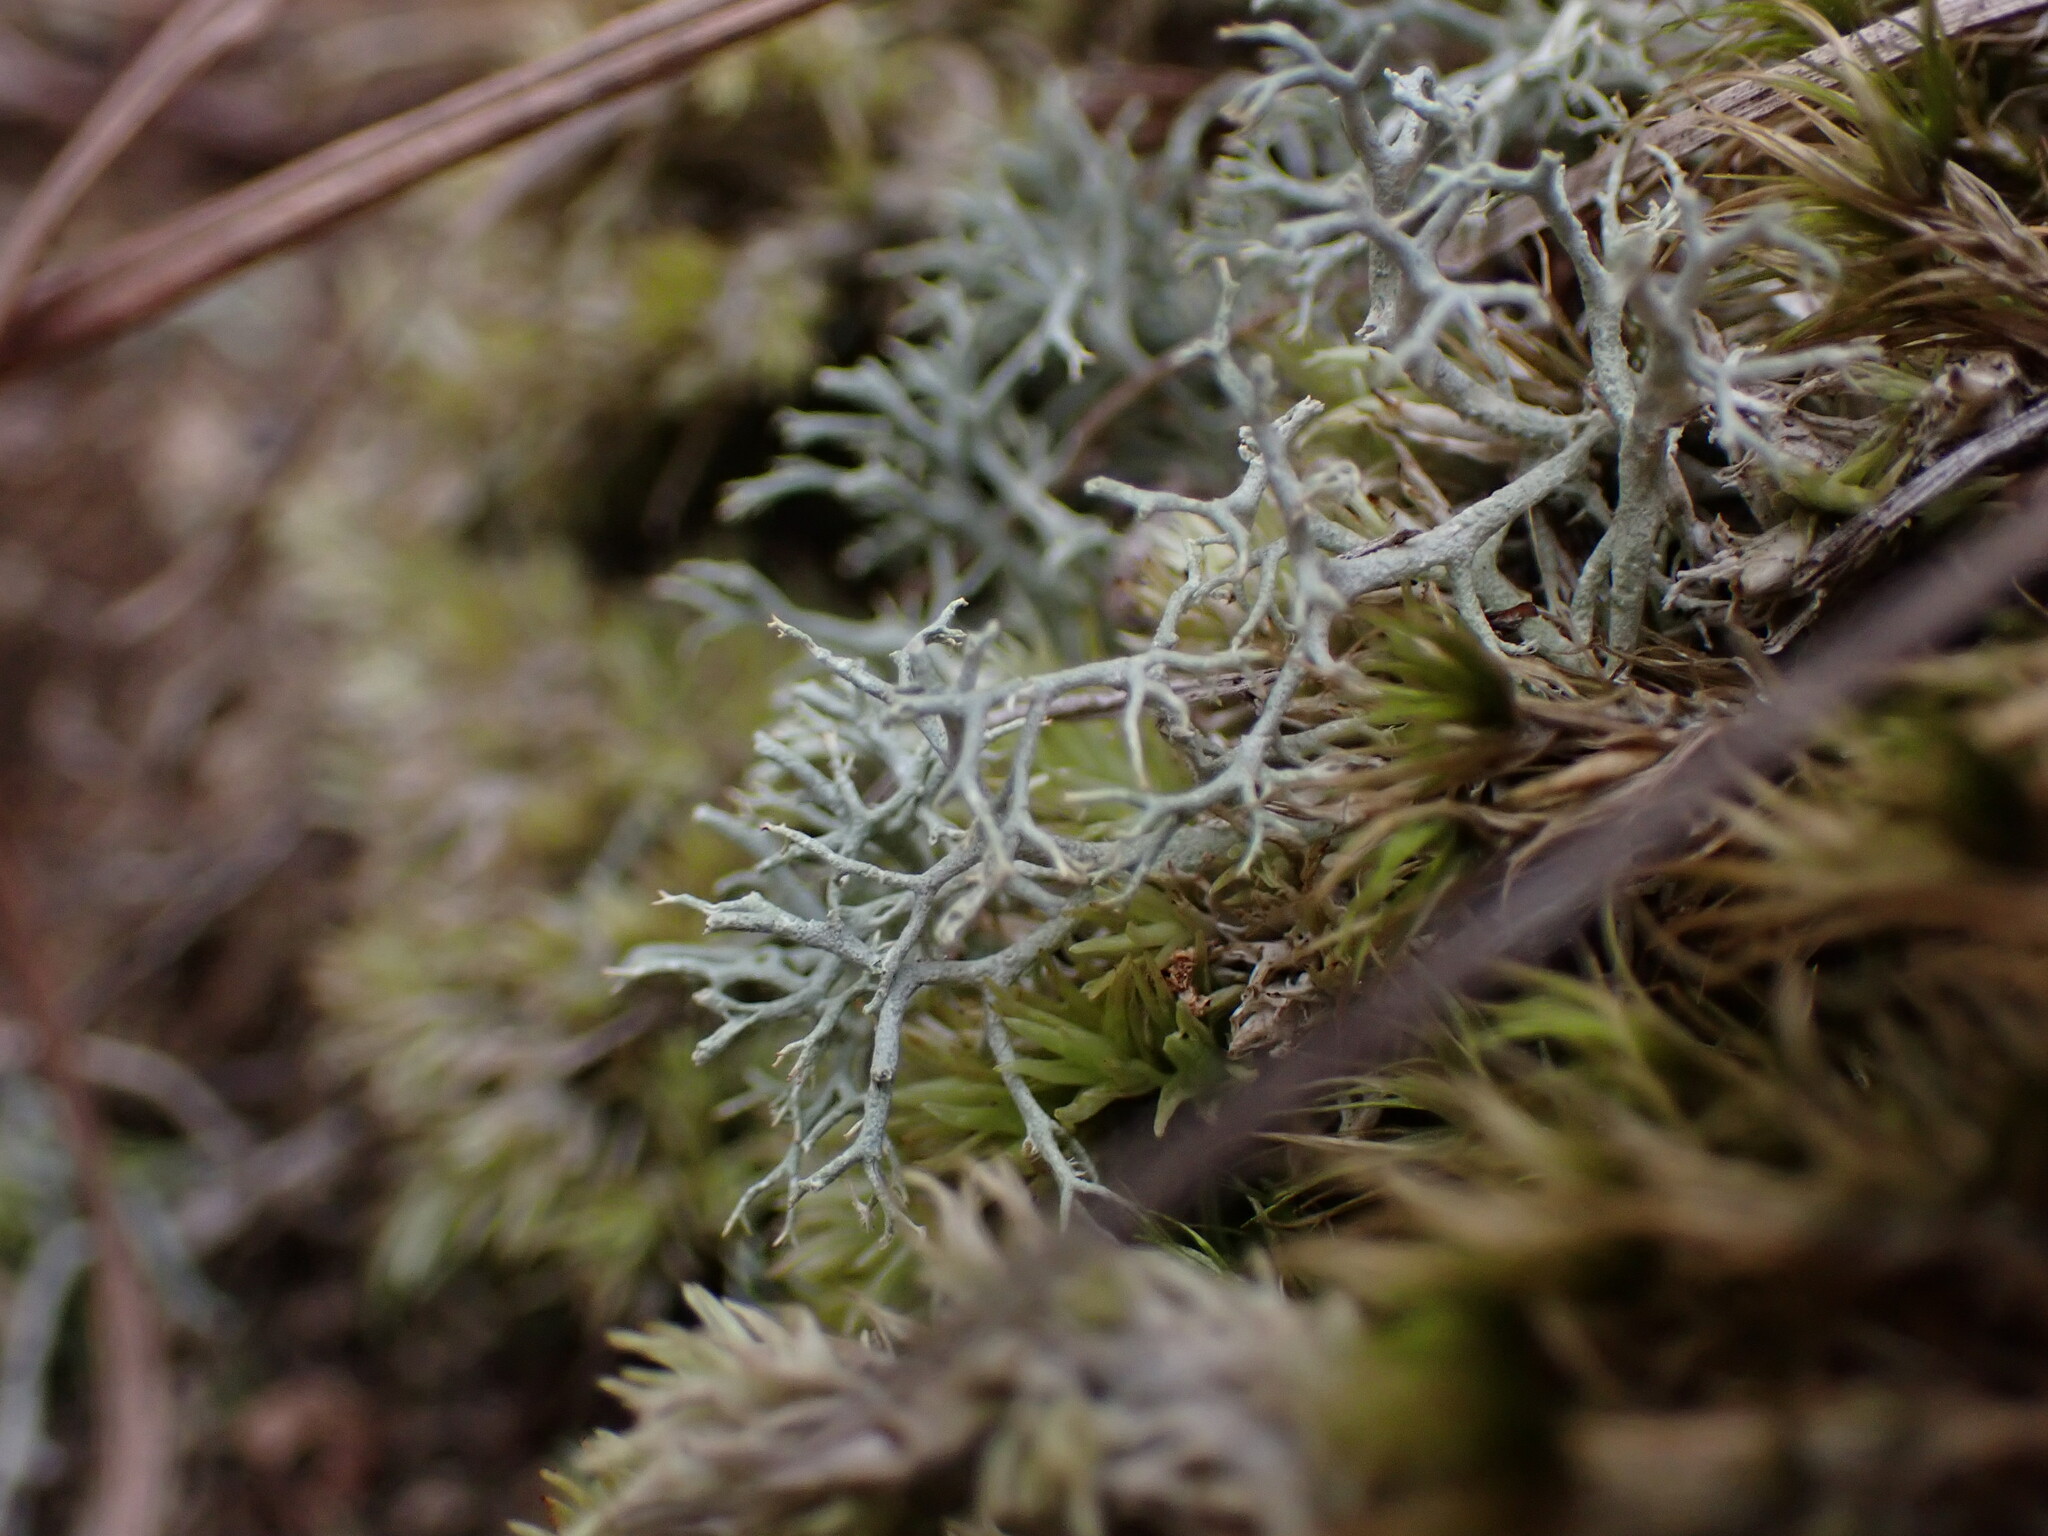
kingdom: Fungi
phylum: Ascomycota
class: Lecanoromycetes
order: Lecanorales
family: Cladoniaceae
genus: Cladonia
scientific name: Cladonia subtenuis
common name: Dixie reindeer lichen
